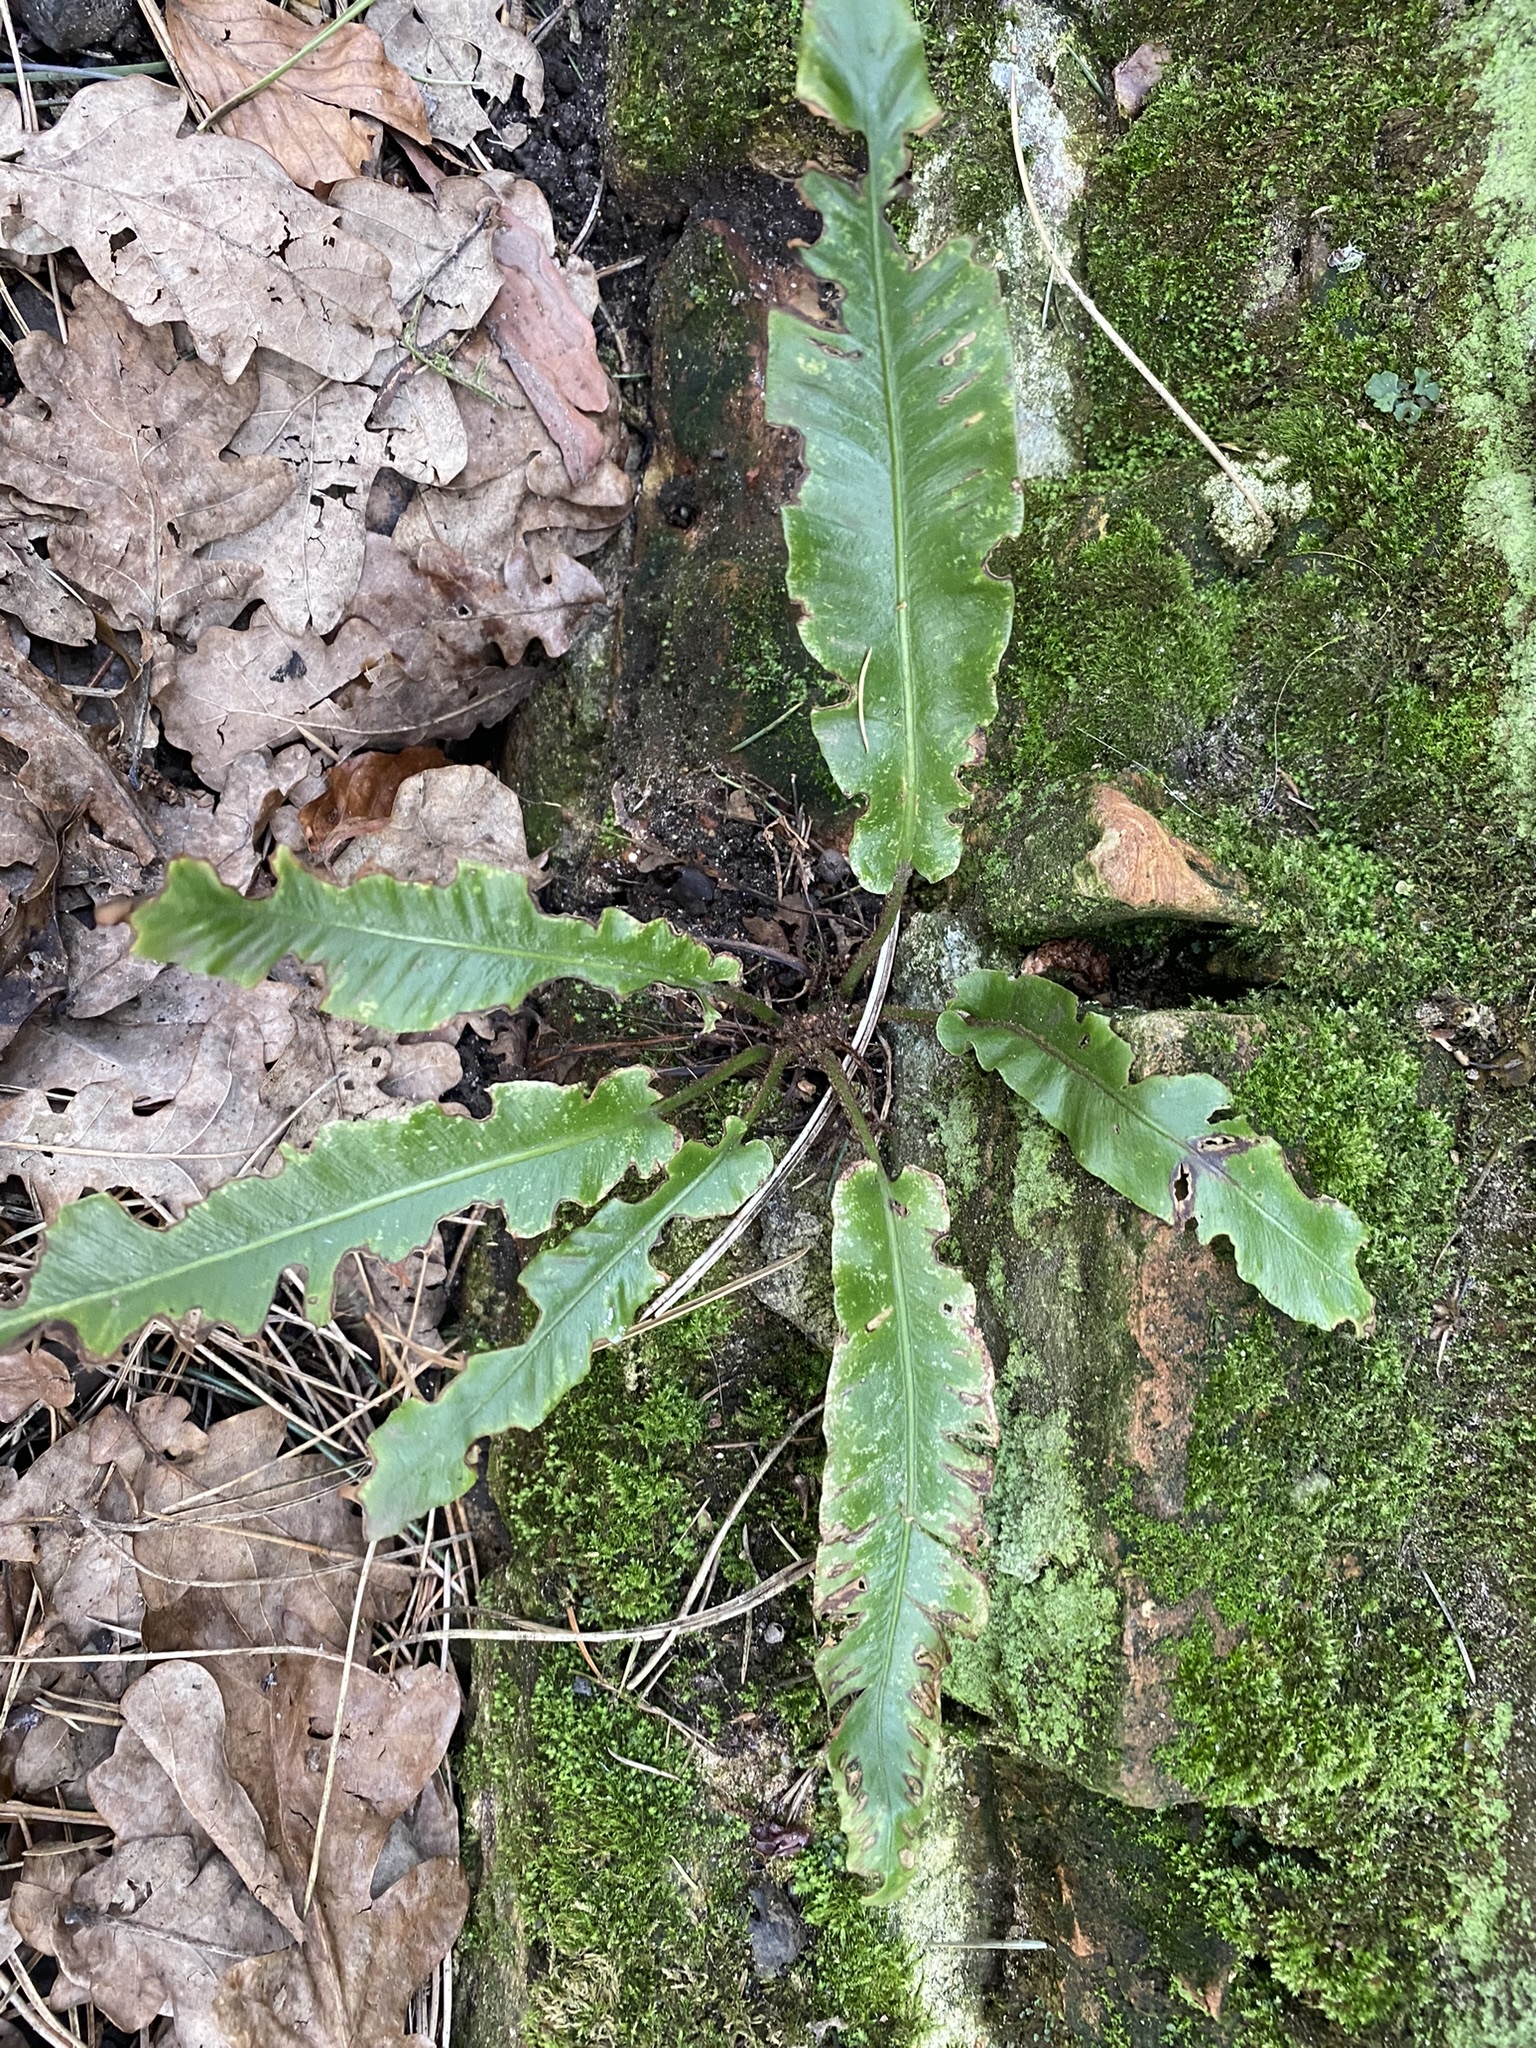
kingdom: Plantae
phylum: Tracheophyta
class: Polypodiopsida
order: Polypodiales
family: Aspleniaceae
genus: Asplenium
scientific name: Asplenium scolopendrium
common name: Hart's-tongue fern
